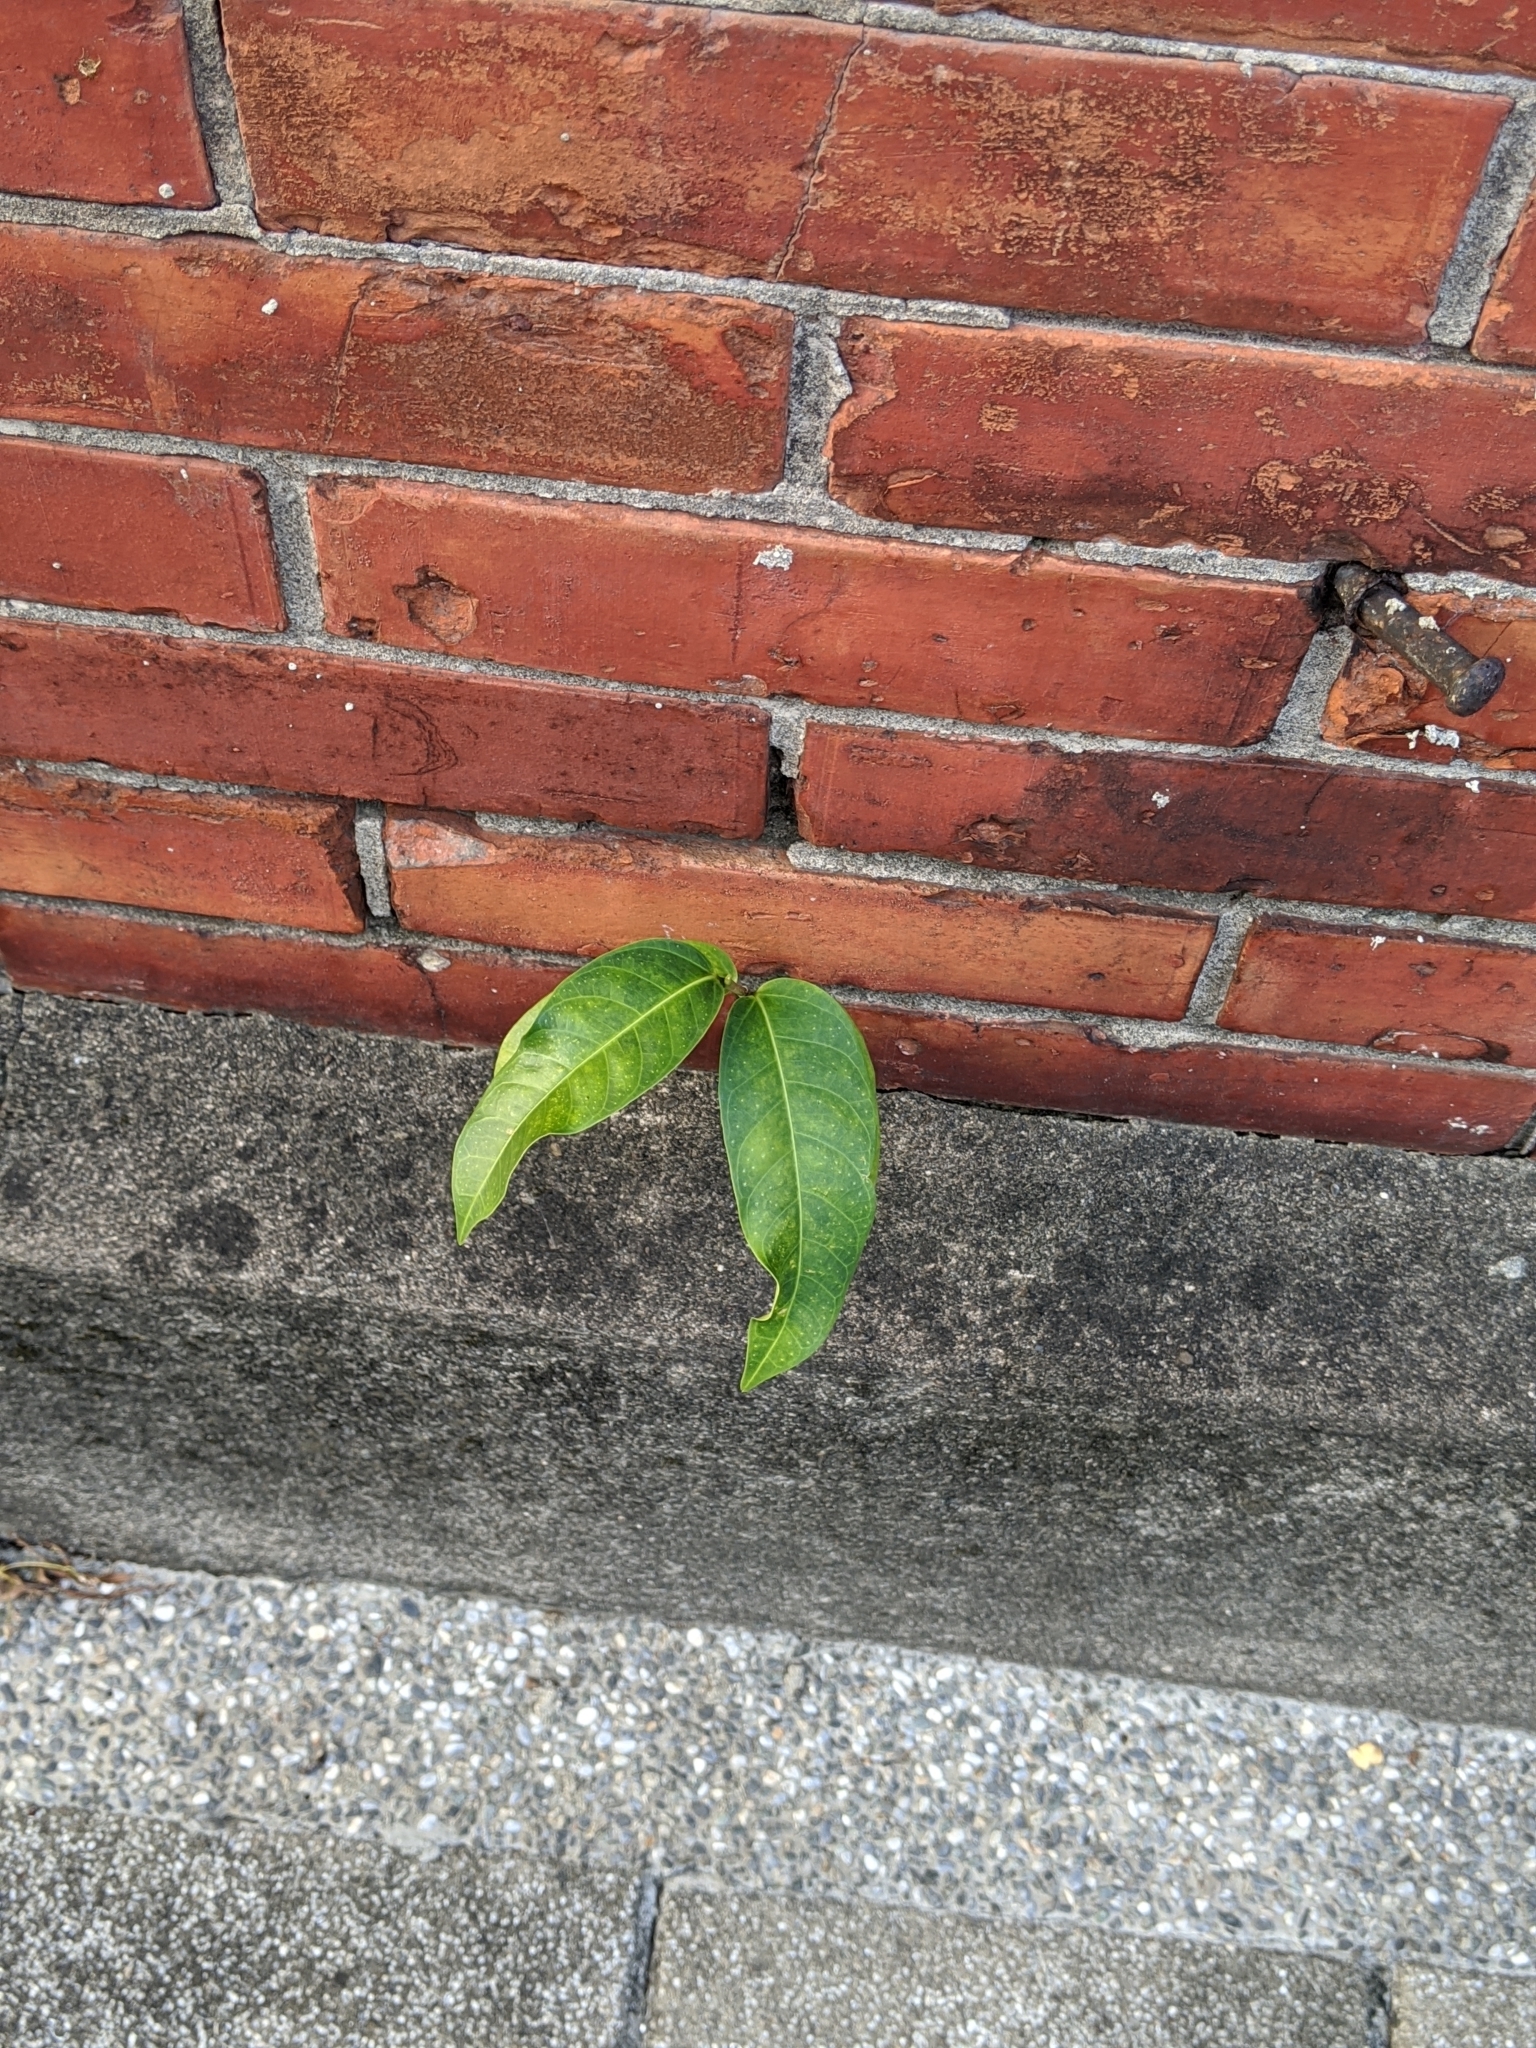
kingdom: Plantae
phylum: Tracheophyta
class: Magnoliopsida
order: Rosales
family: Moraceae
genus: Ficus
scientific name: Ficus virgata
